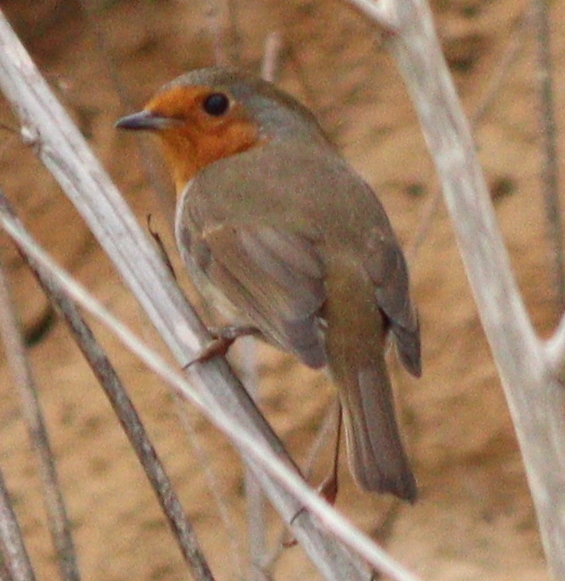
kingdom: Animalia
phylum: Chordata
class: Aves
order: Passeriformes
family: Muscicapidae
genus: Erithacus
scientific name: Erithacus rubecula
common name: European robin
